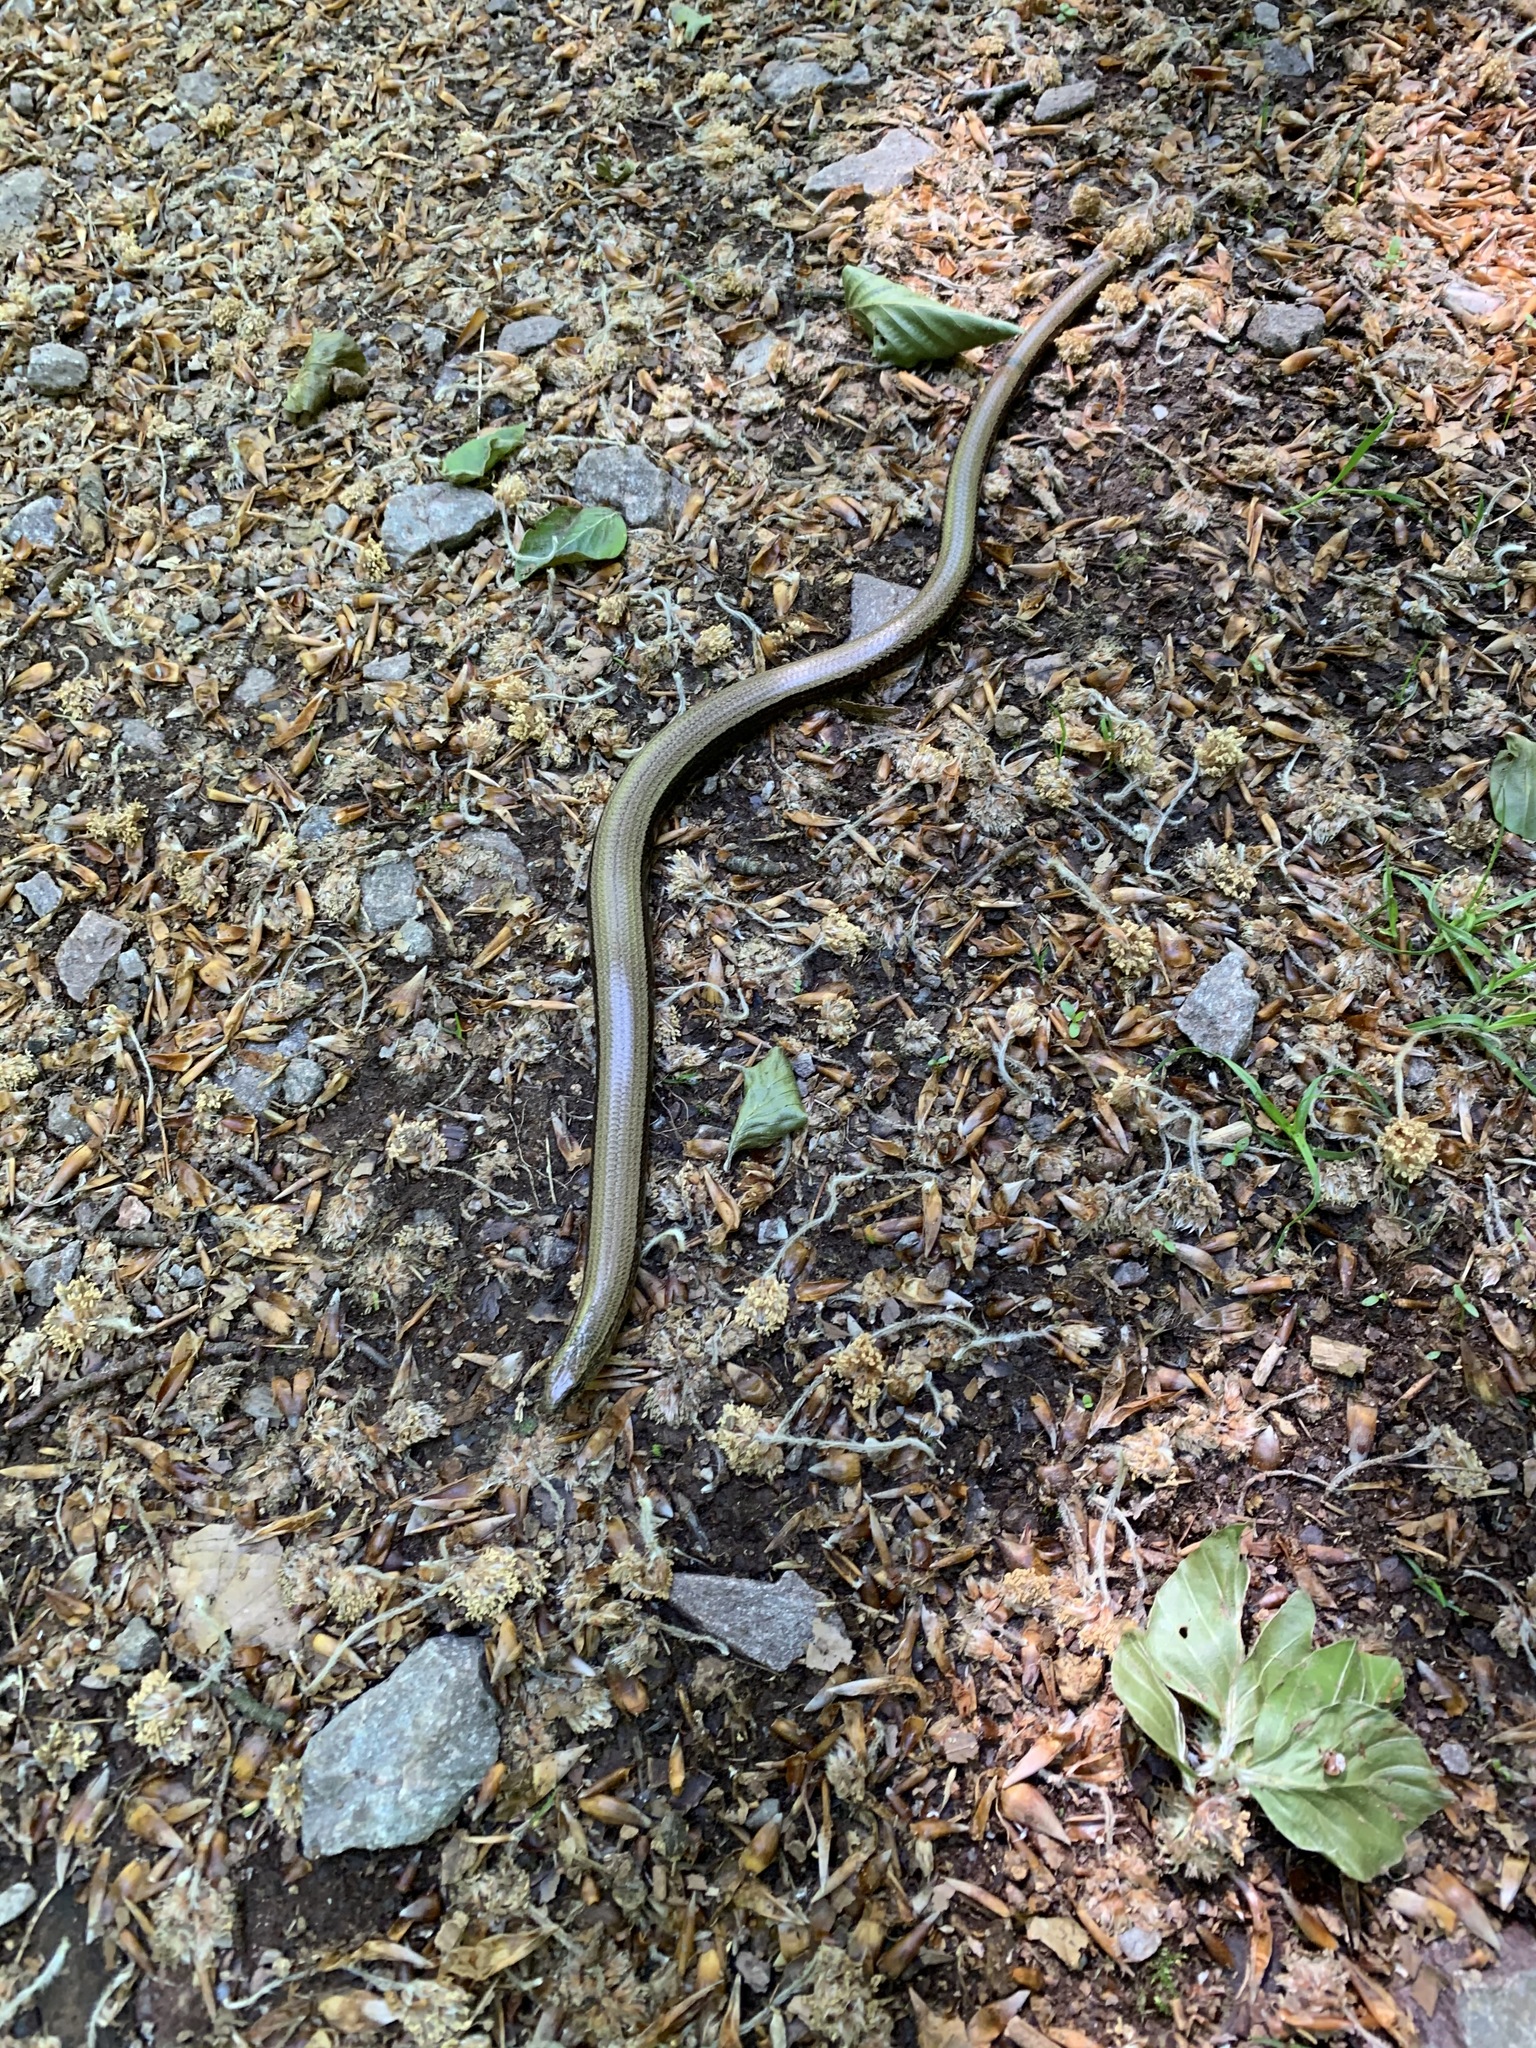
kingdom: Animalia
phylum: Chordata
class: Squamata
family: Anguidae
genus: Anguis
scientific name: Anguis fragilis
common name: Slow worm
